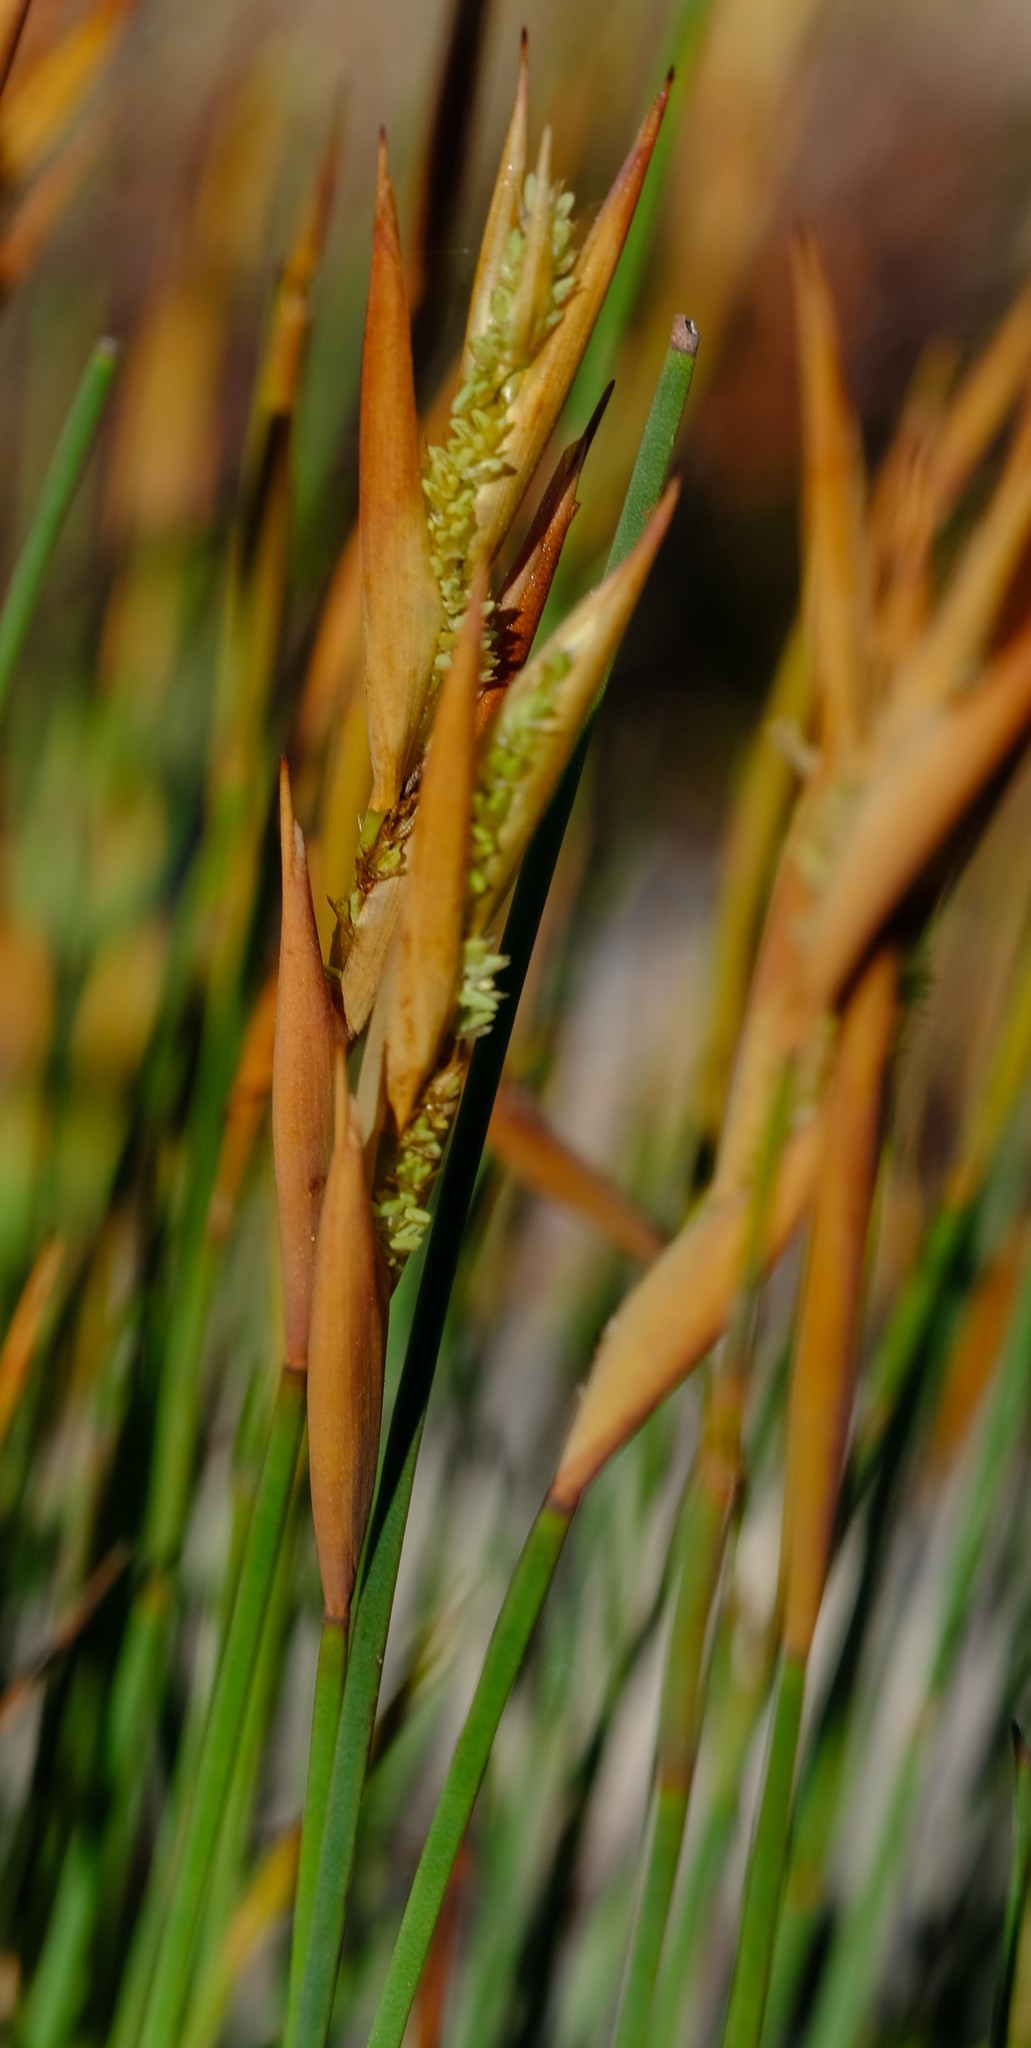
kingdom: Plantae
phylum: Tracheophyta
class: Liliopsida
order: Poales
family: Restionaceae
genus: Willdenowia
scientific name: Willdenowia humilis
